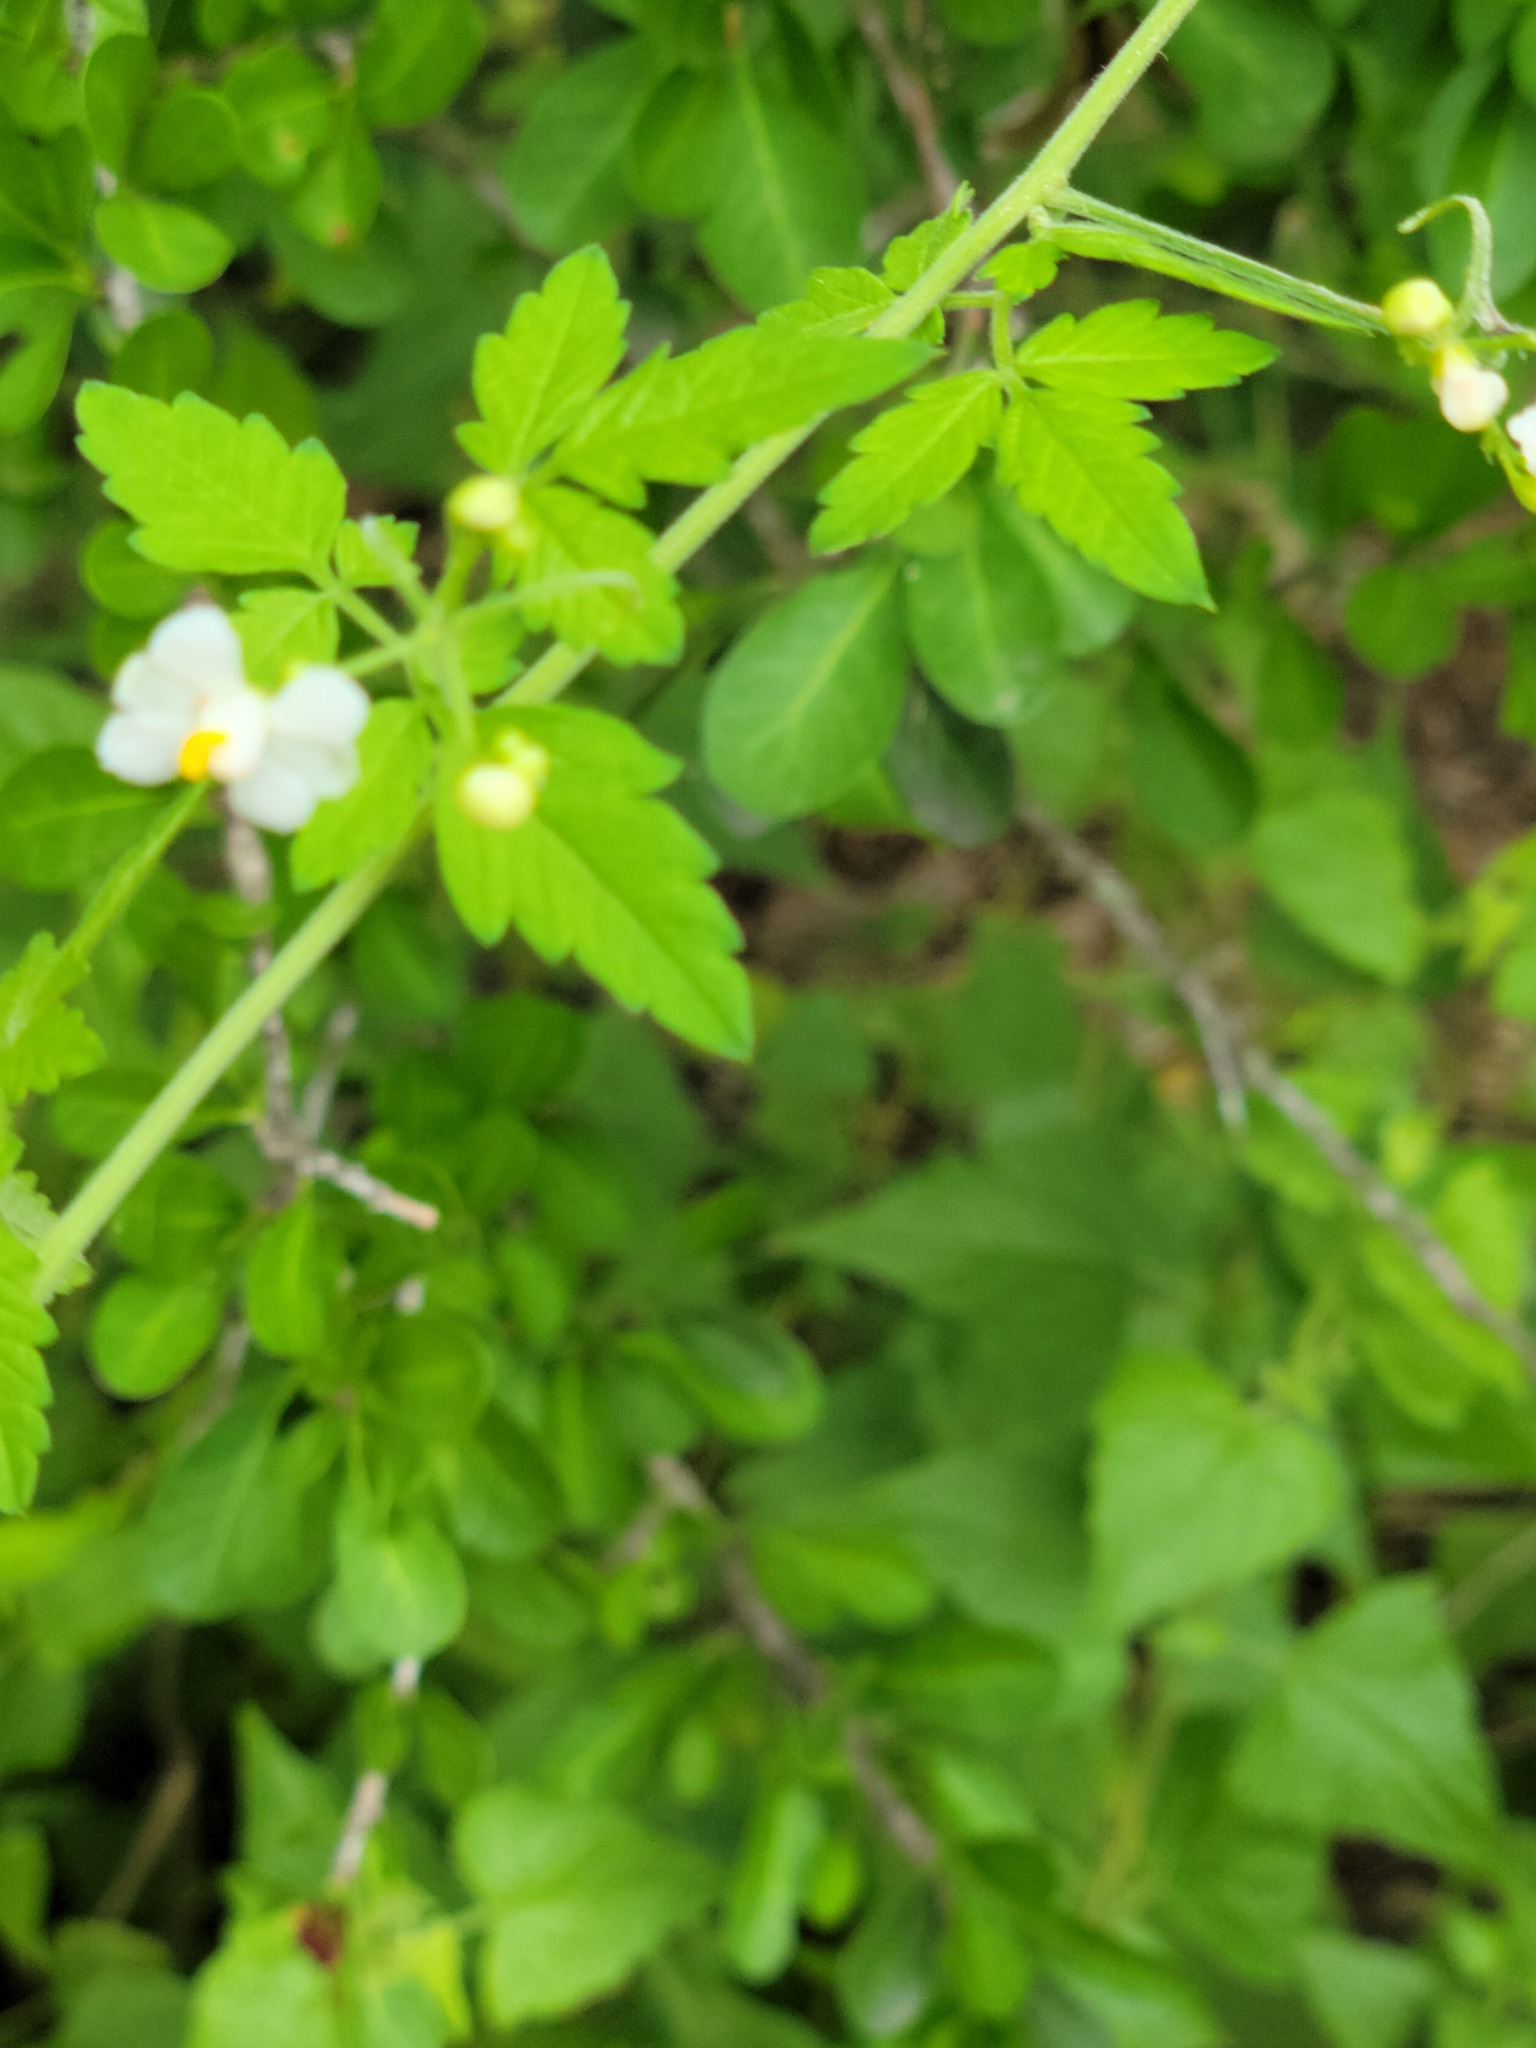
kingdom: Plantae
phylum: Tracheophyta
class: Magnoliopsida
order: Sapindales
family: Sapindaceae
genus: Cardiospermum
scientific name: Cardiospermum corindum
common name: Faux persil
